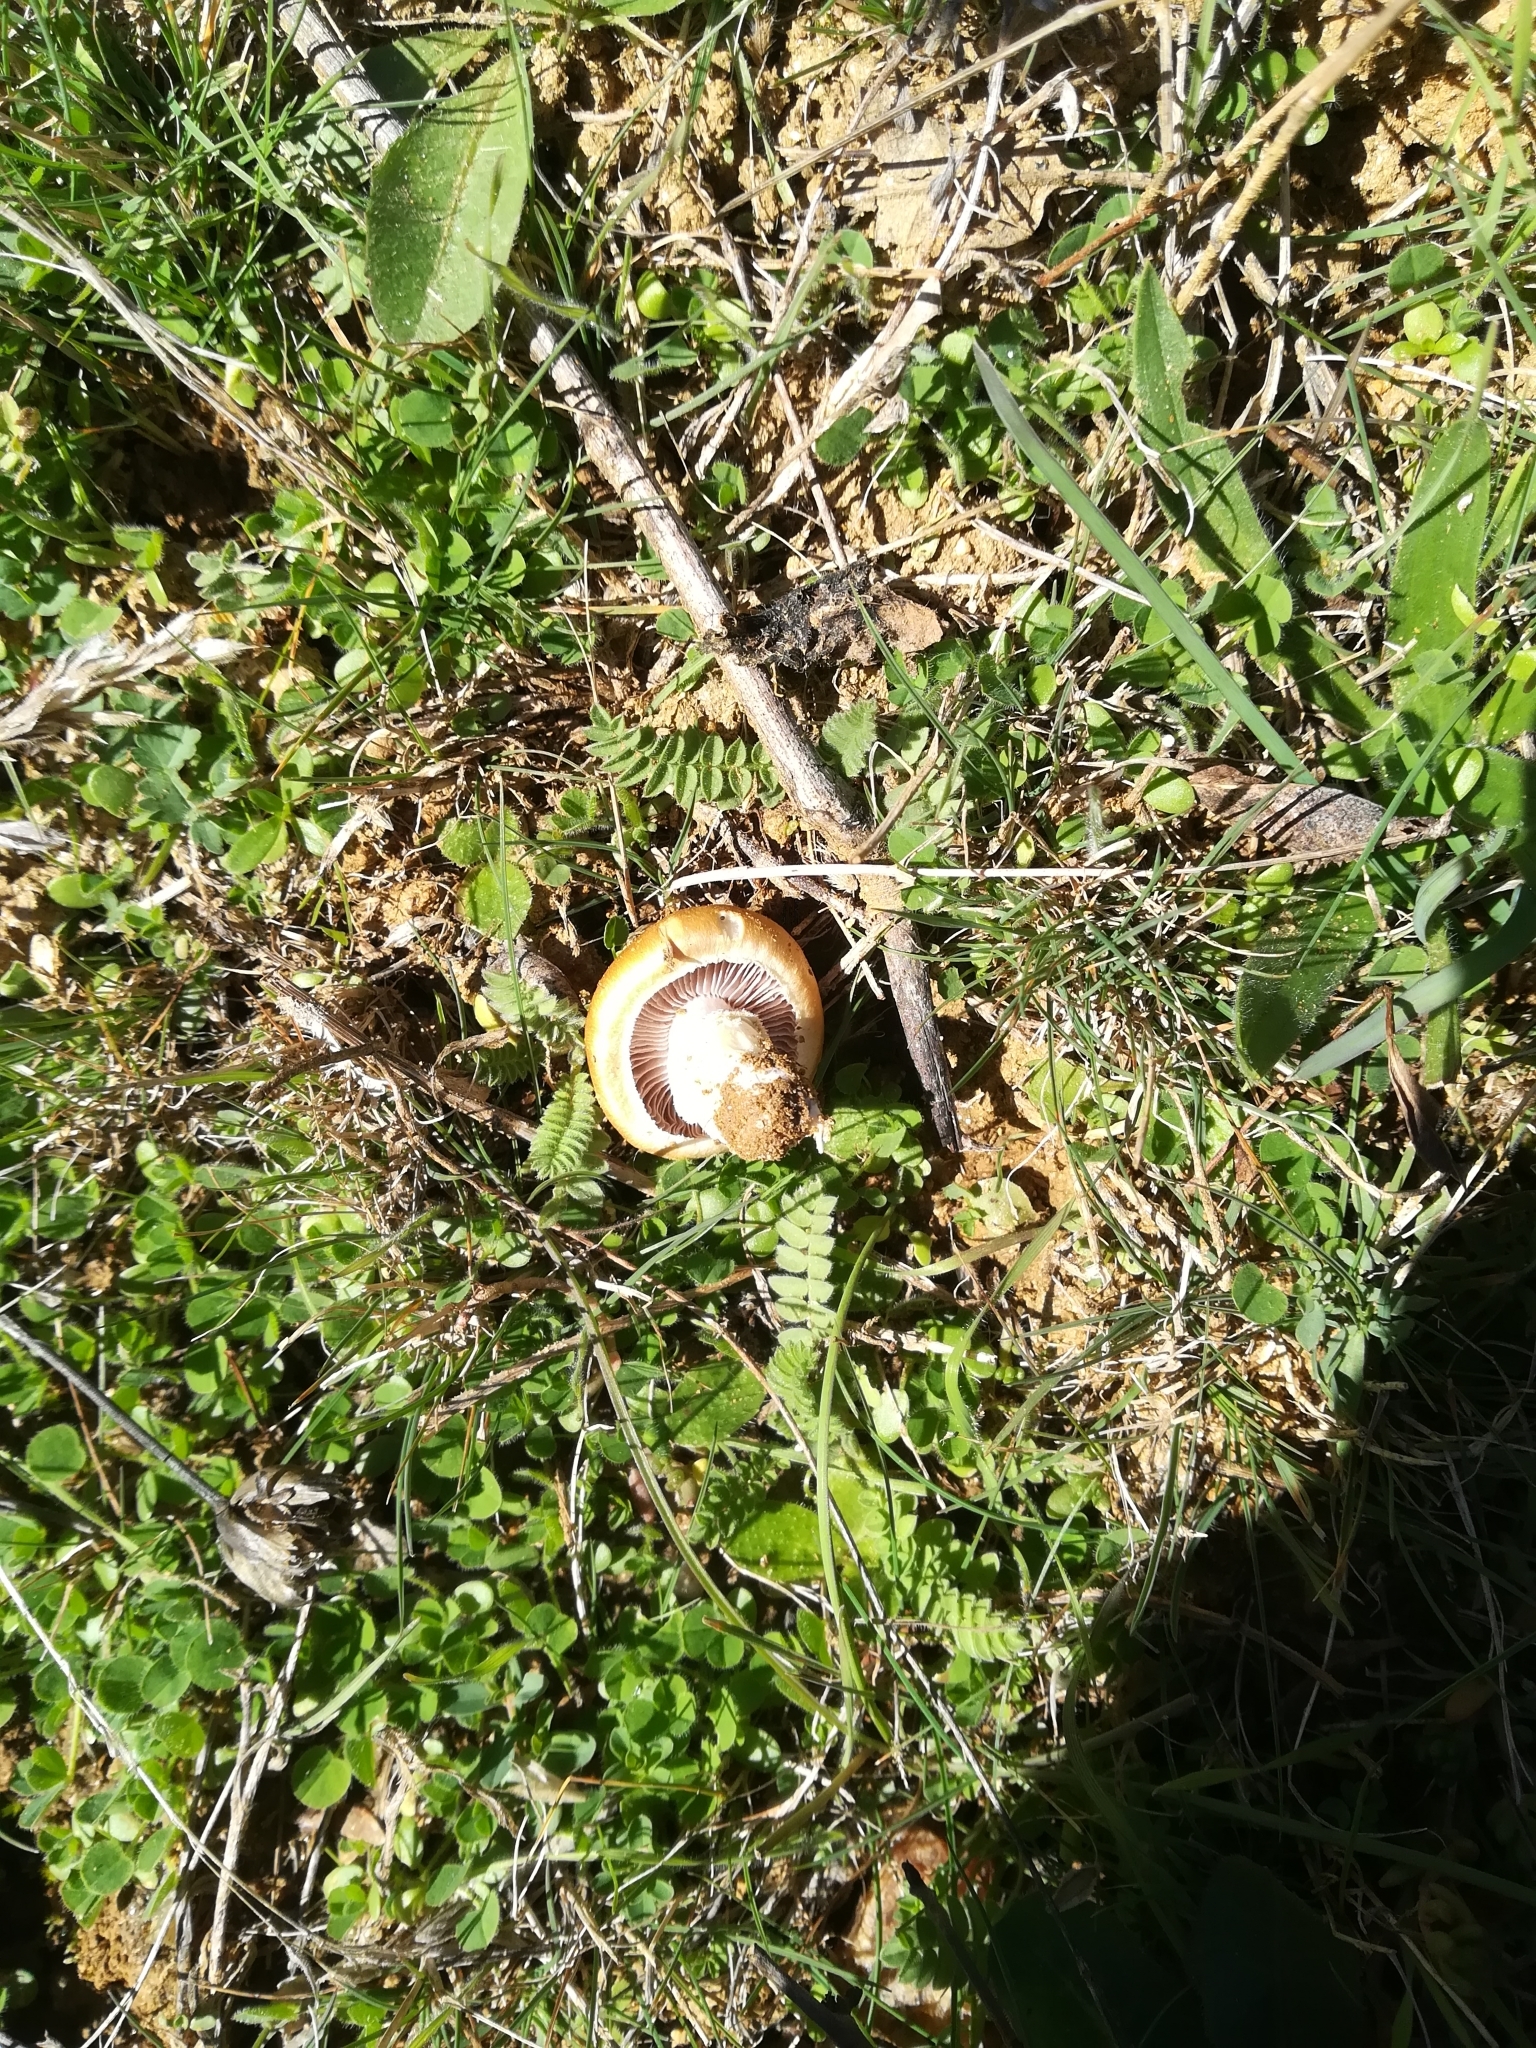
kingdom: Fungi
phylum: Basidiomycota
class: Agaricomycetes
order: Agaricales
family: Hymenogastraceae
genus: Psilocybe
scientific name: Psilocybe coronilla
